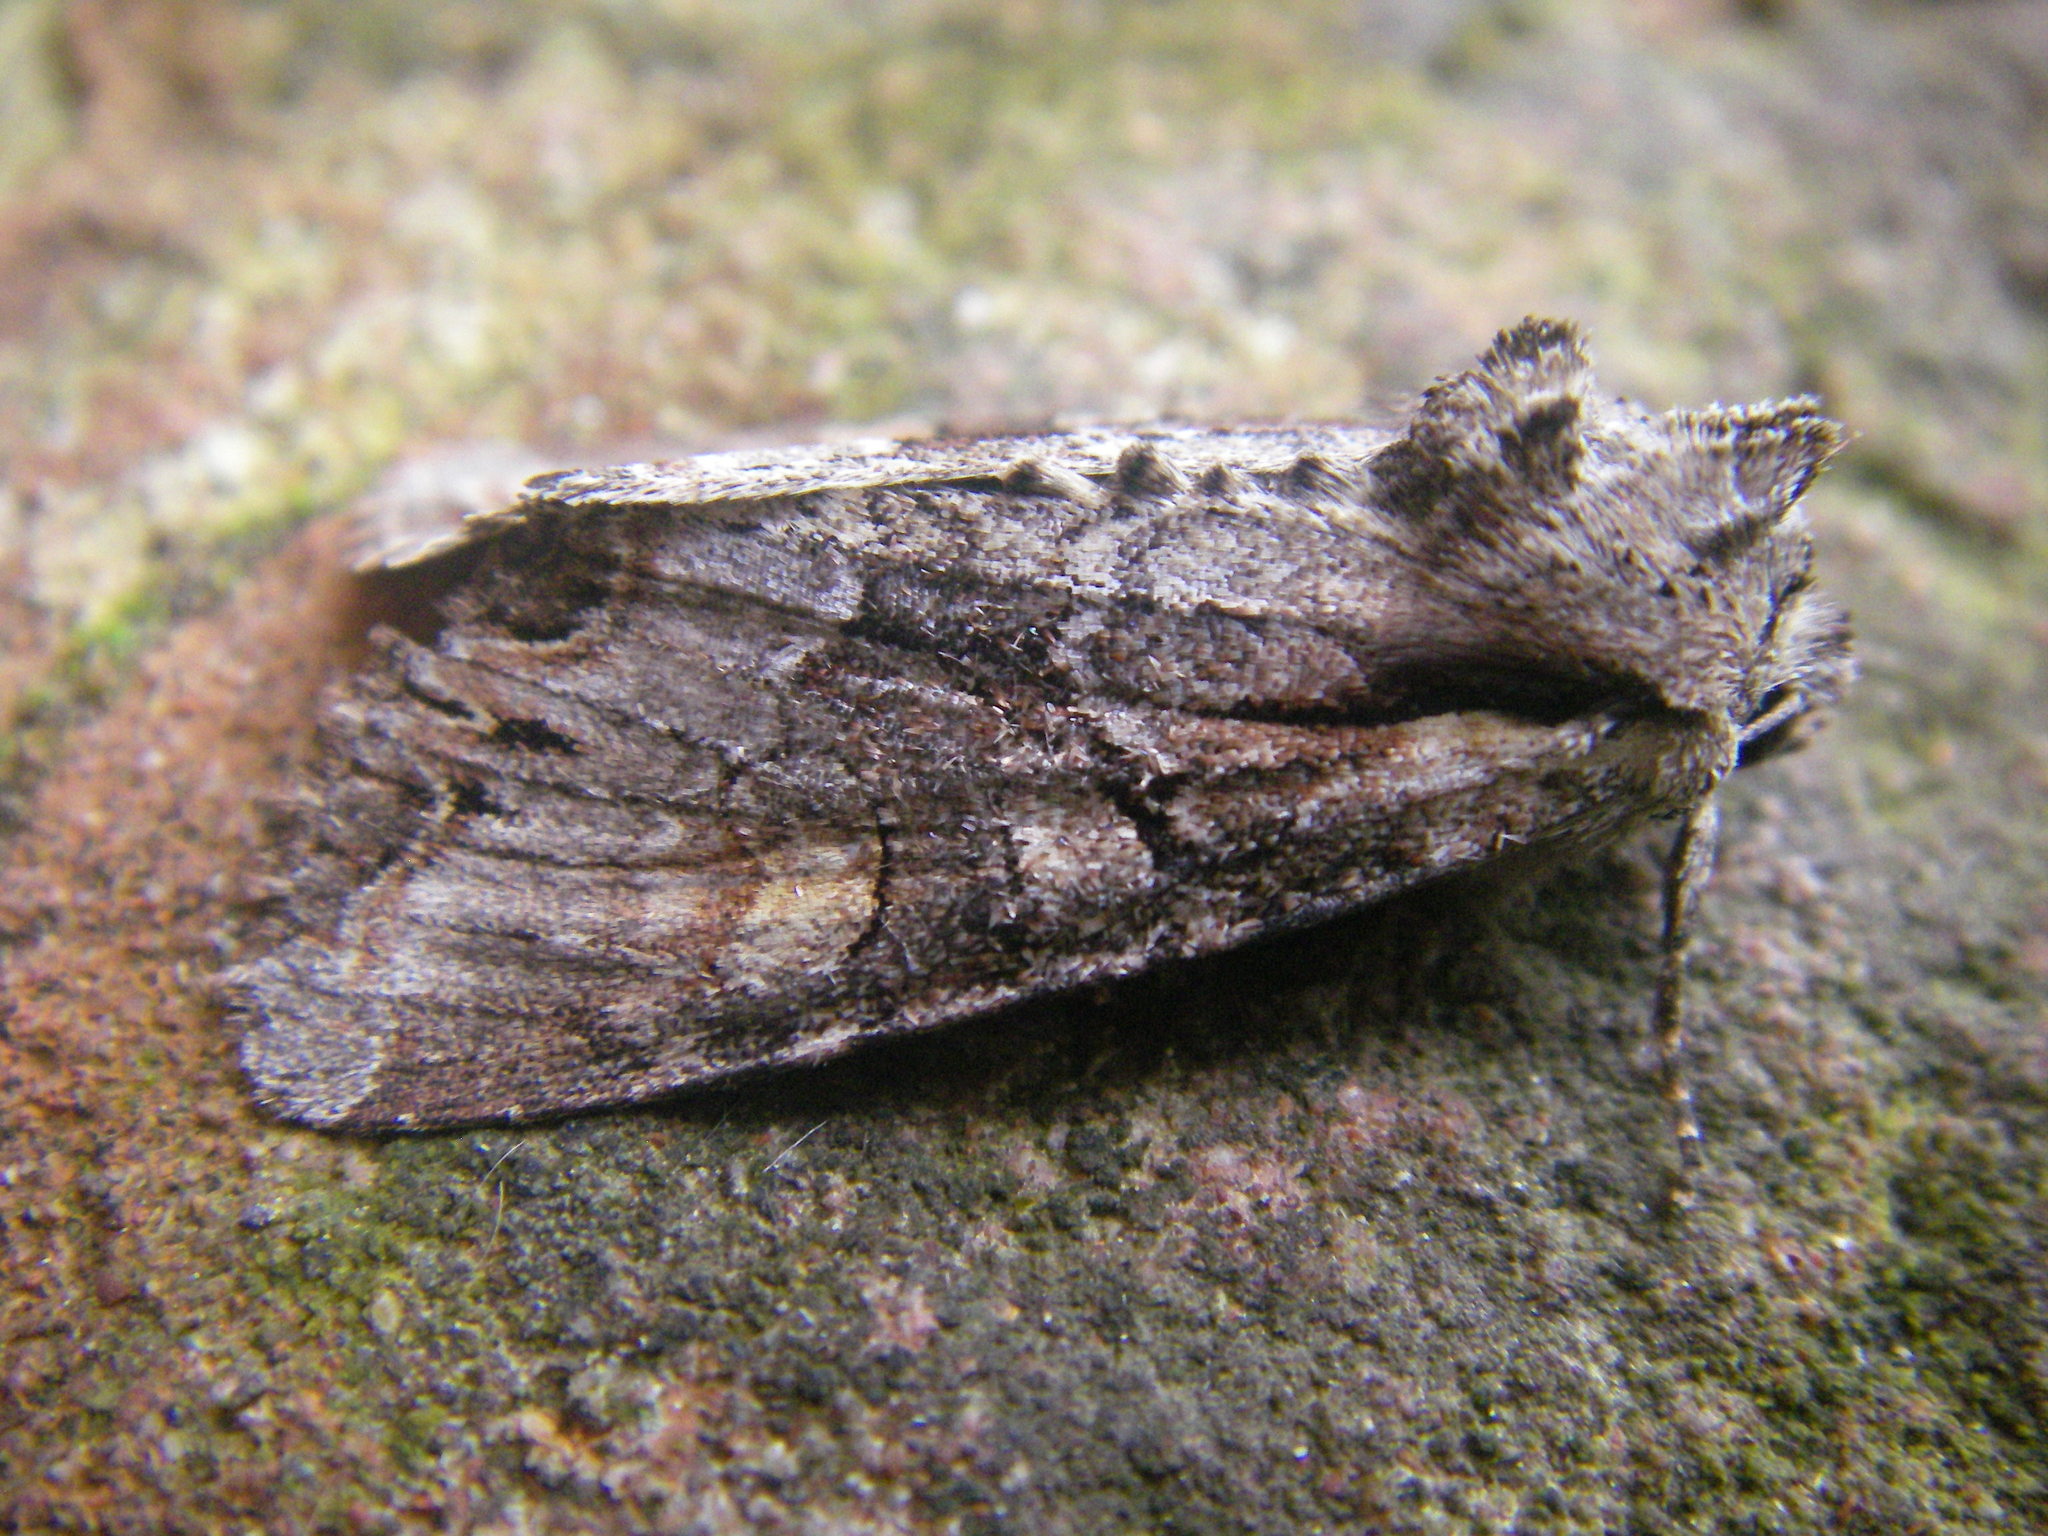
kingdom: Animalia
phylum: Arthropoda
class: Insecta
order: Lepidoptera
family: Noctuidae
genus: Lacanobia
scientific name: Lacanobia w-latinum
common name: Light brocade
